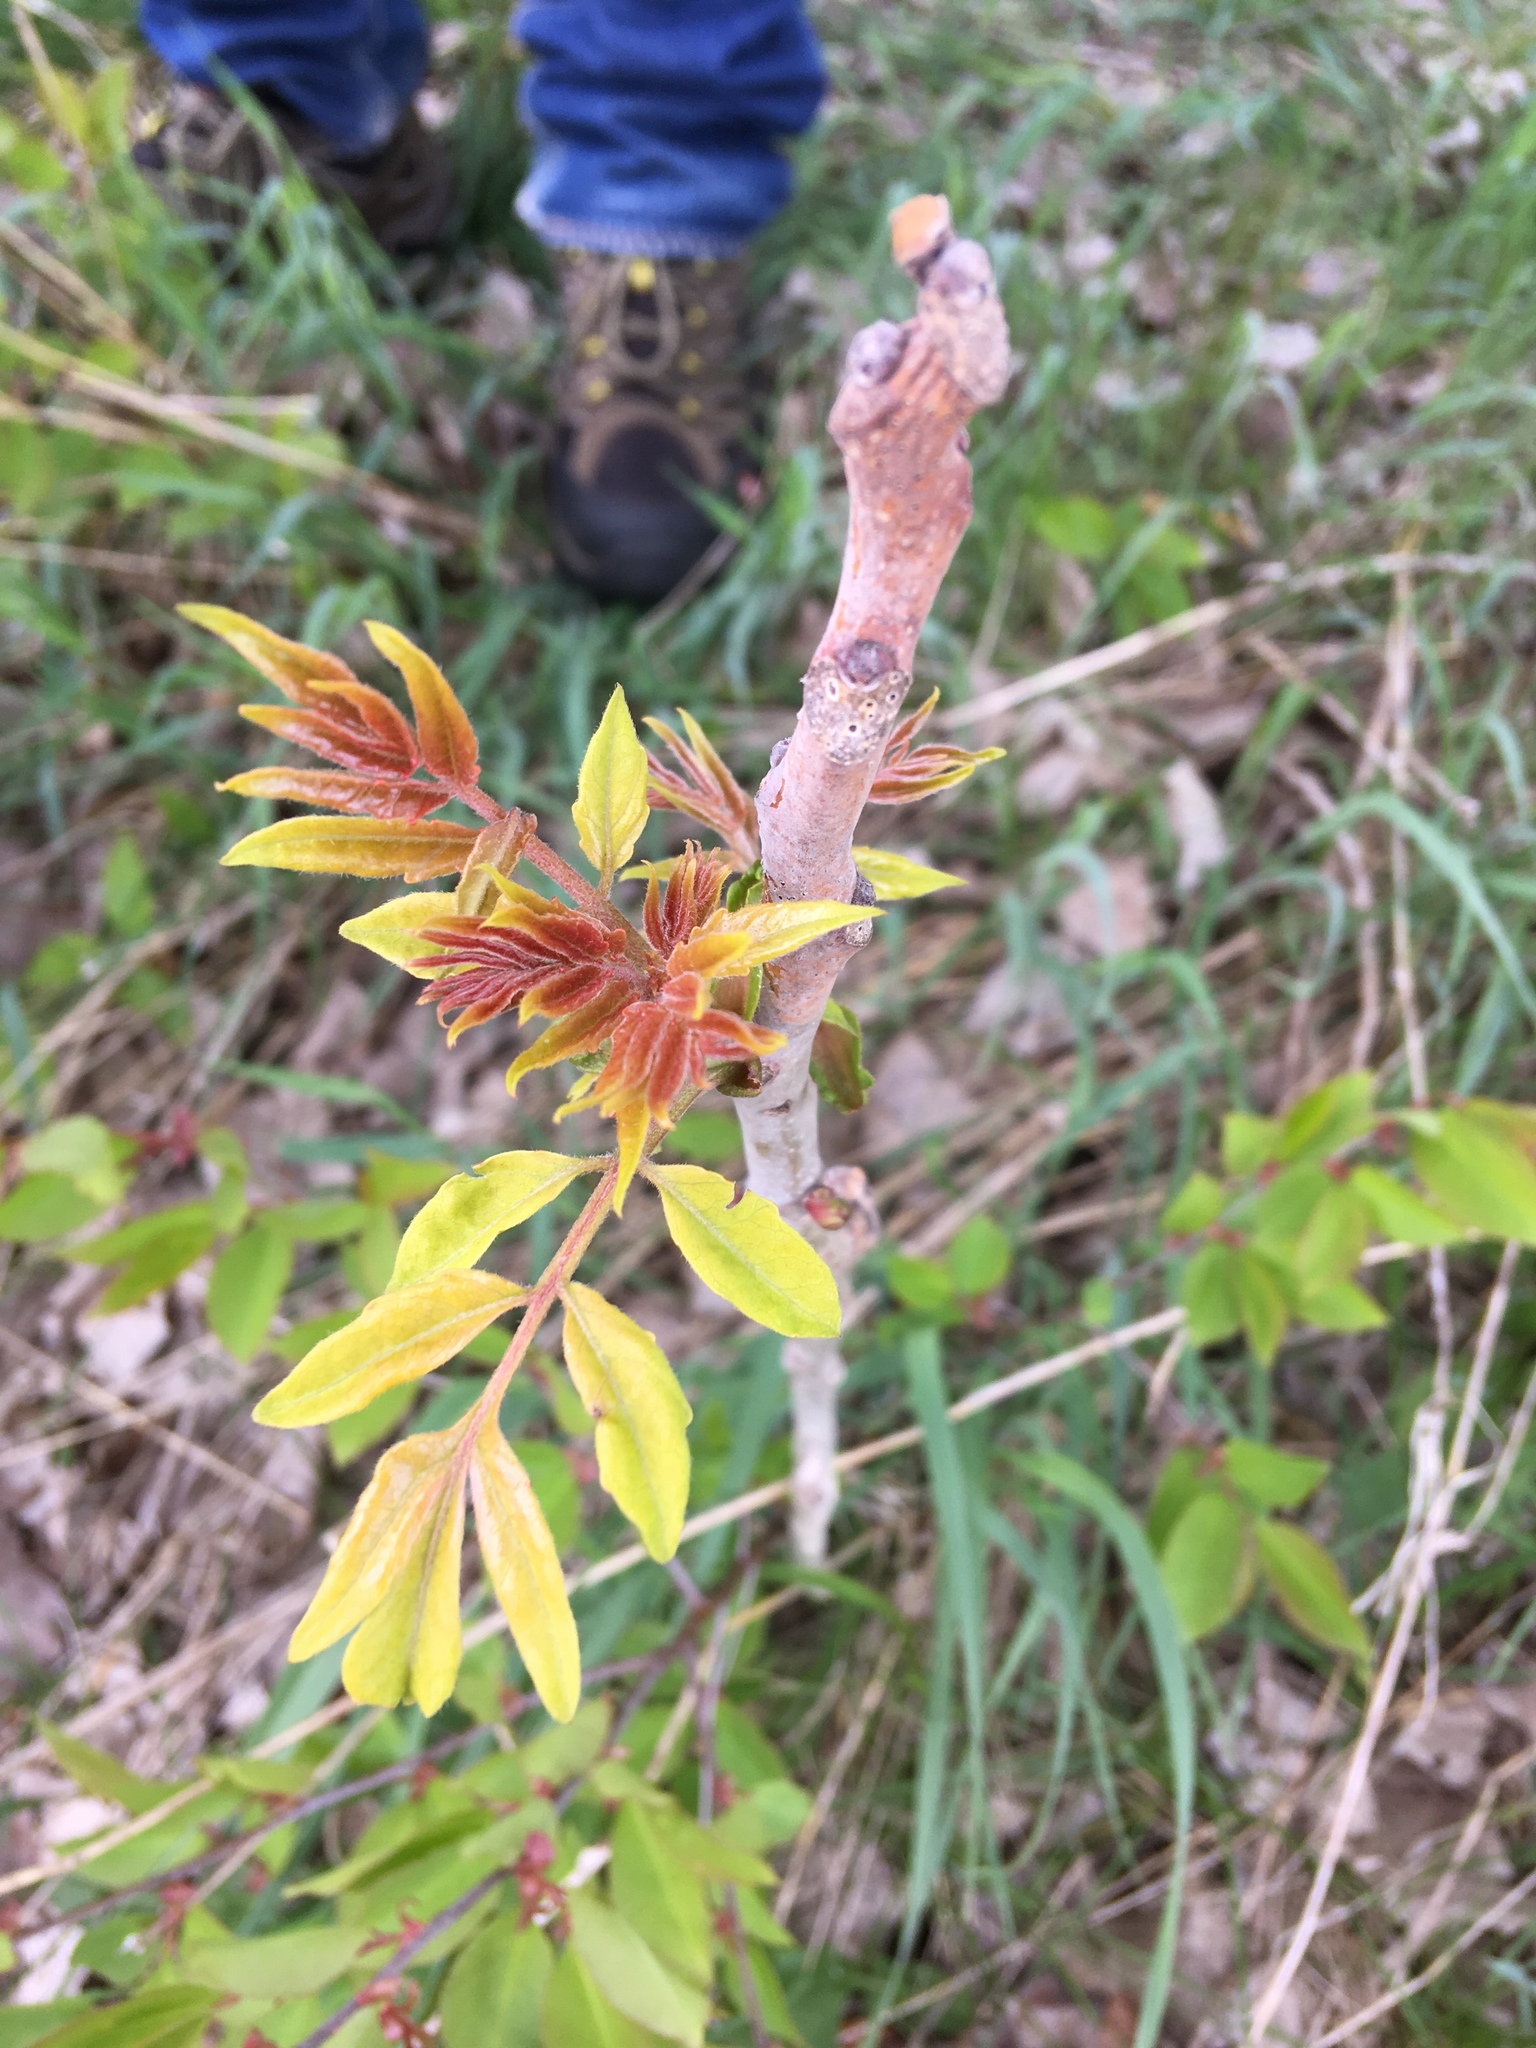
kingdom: Plantae
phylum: Tracheophyta
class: Magnoliopsida
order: Sapindales
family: Simaroubaceae
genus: Ailanthus
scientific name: Ailanthus altissima
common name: Tree-of-heaven
